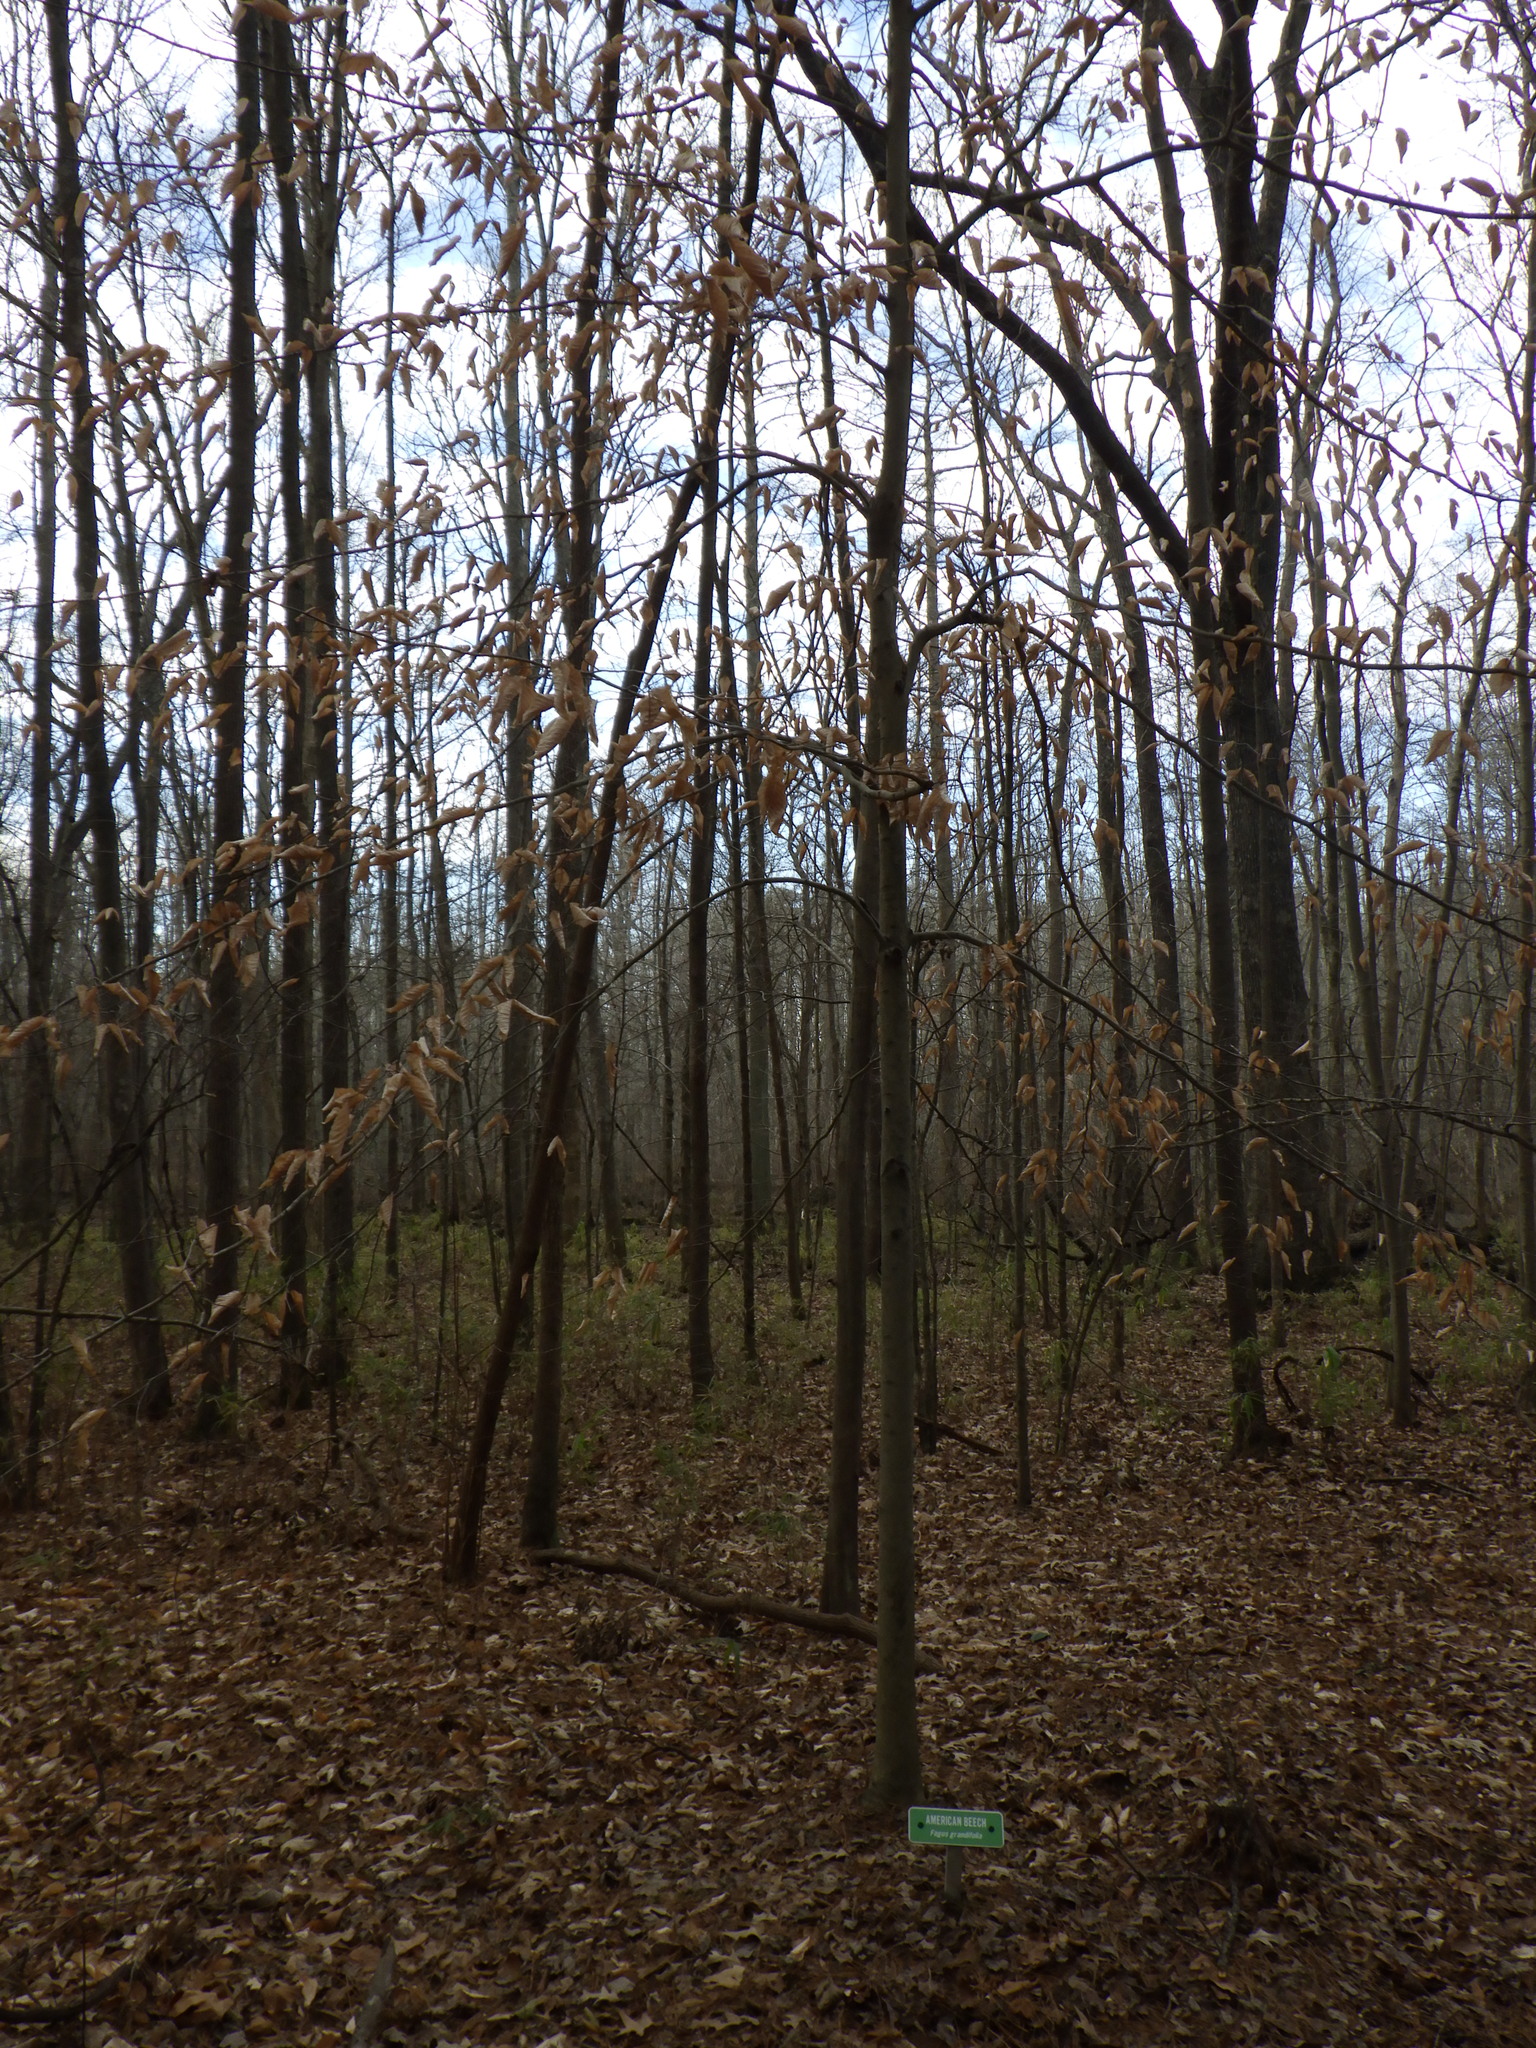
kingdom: Plantae
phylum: Tracheophyta
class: Magnoliopsida
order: Fagales
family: Fagaceae
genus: Fagus
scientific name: Fagus grandifolia
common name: American beech
